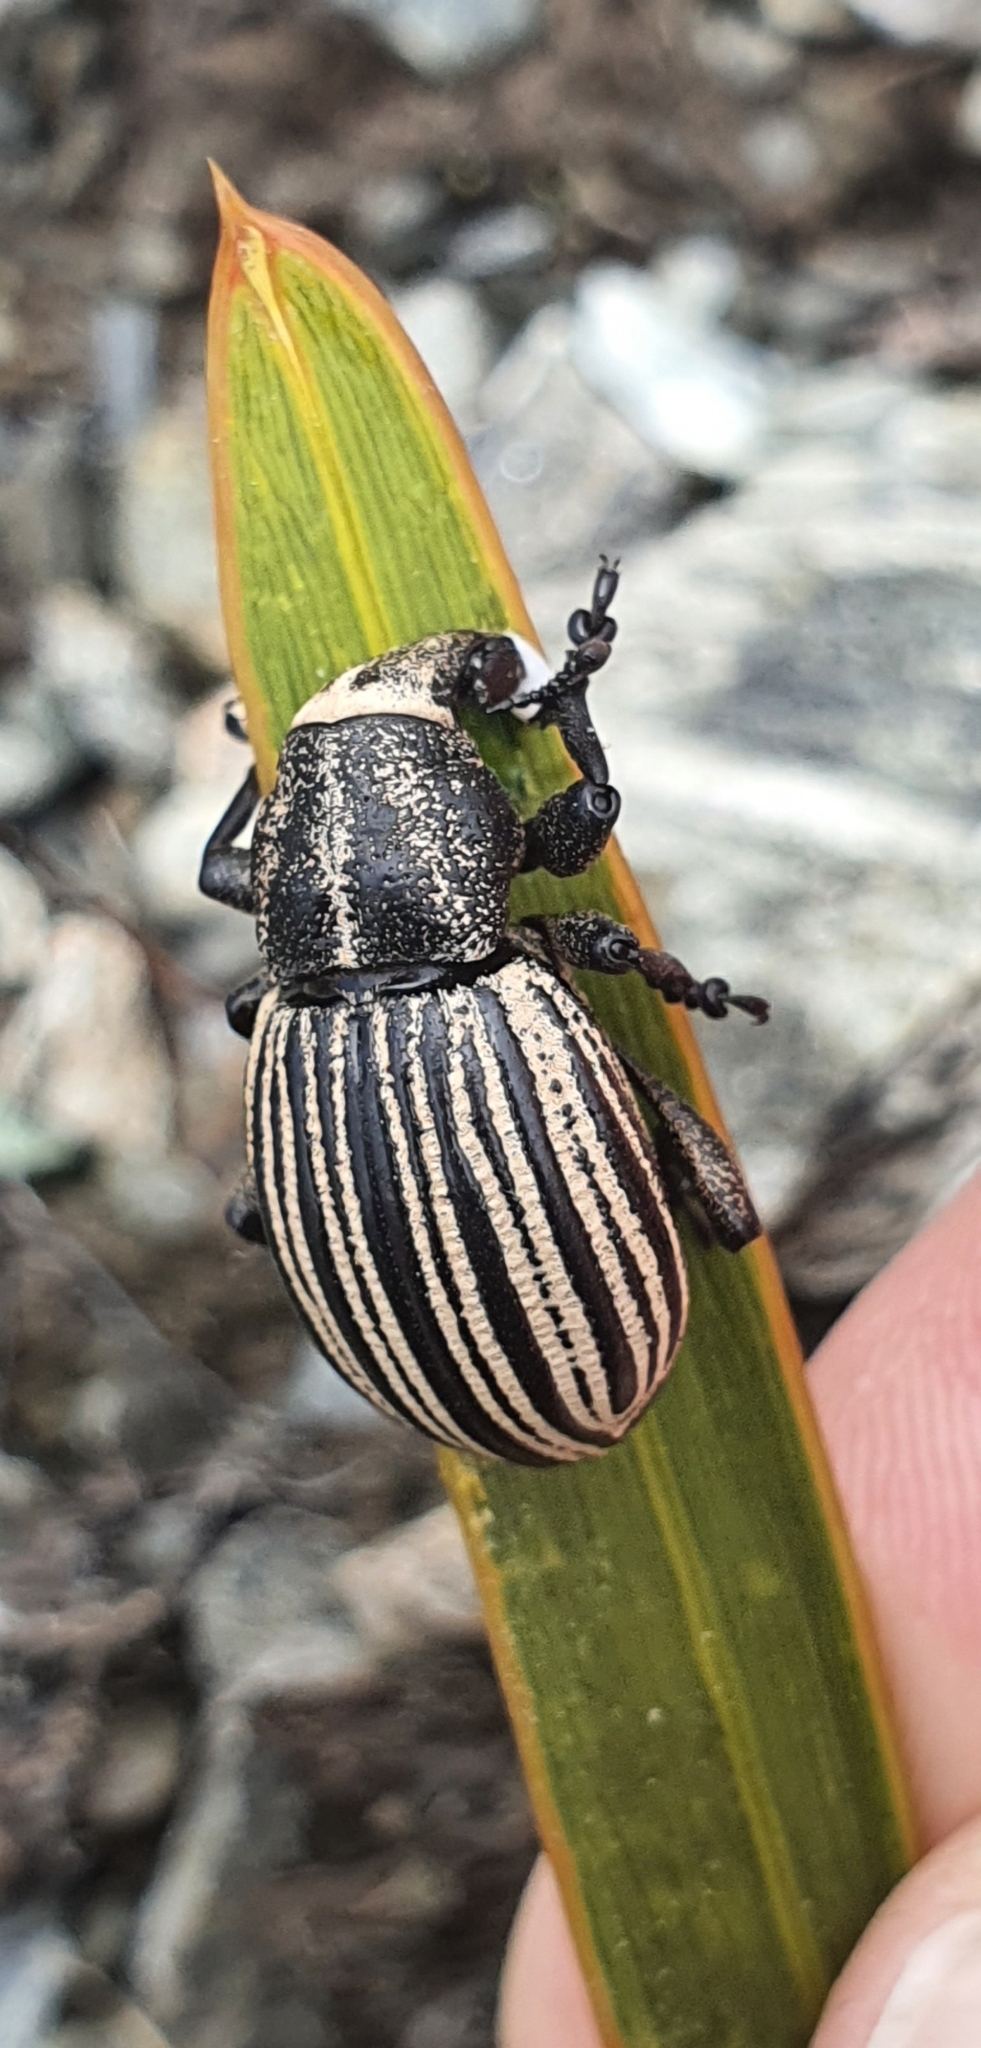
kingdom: Animalia
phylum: Arthropoda
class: Insecta
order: Coleoptera
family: Curculionidae
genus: Lyperobius
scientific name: Lyperobius cupiendus
